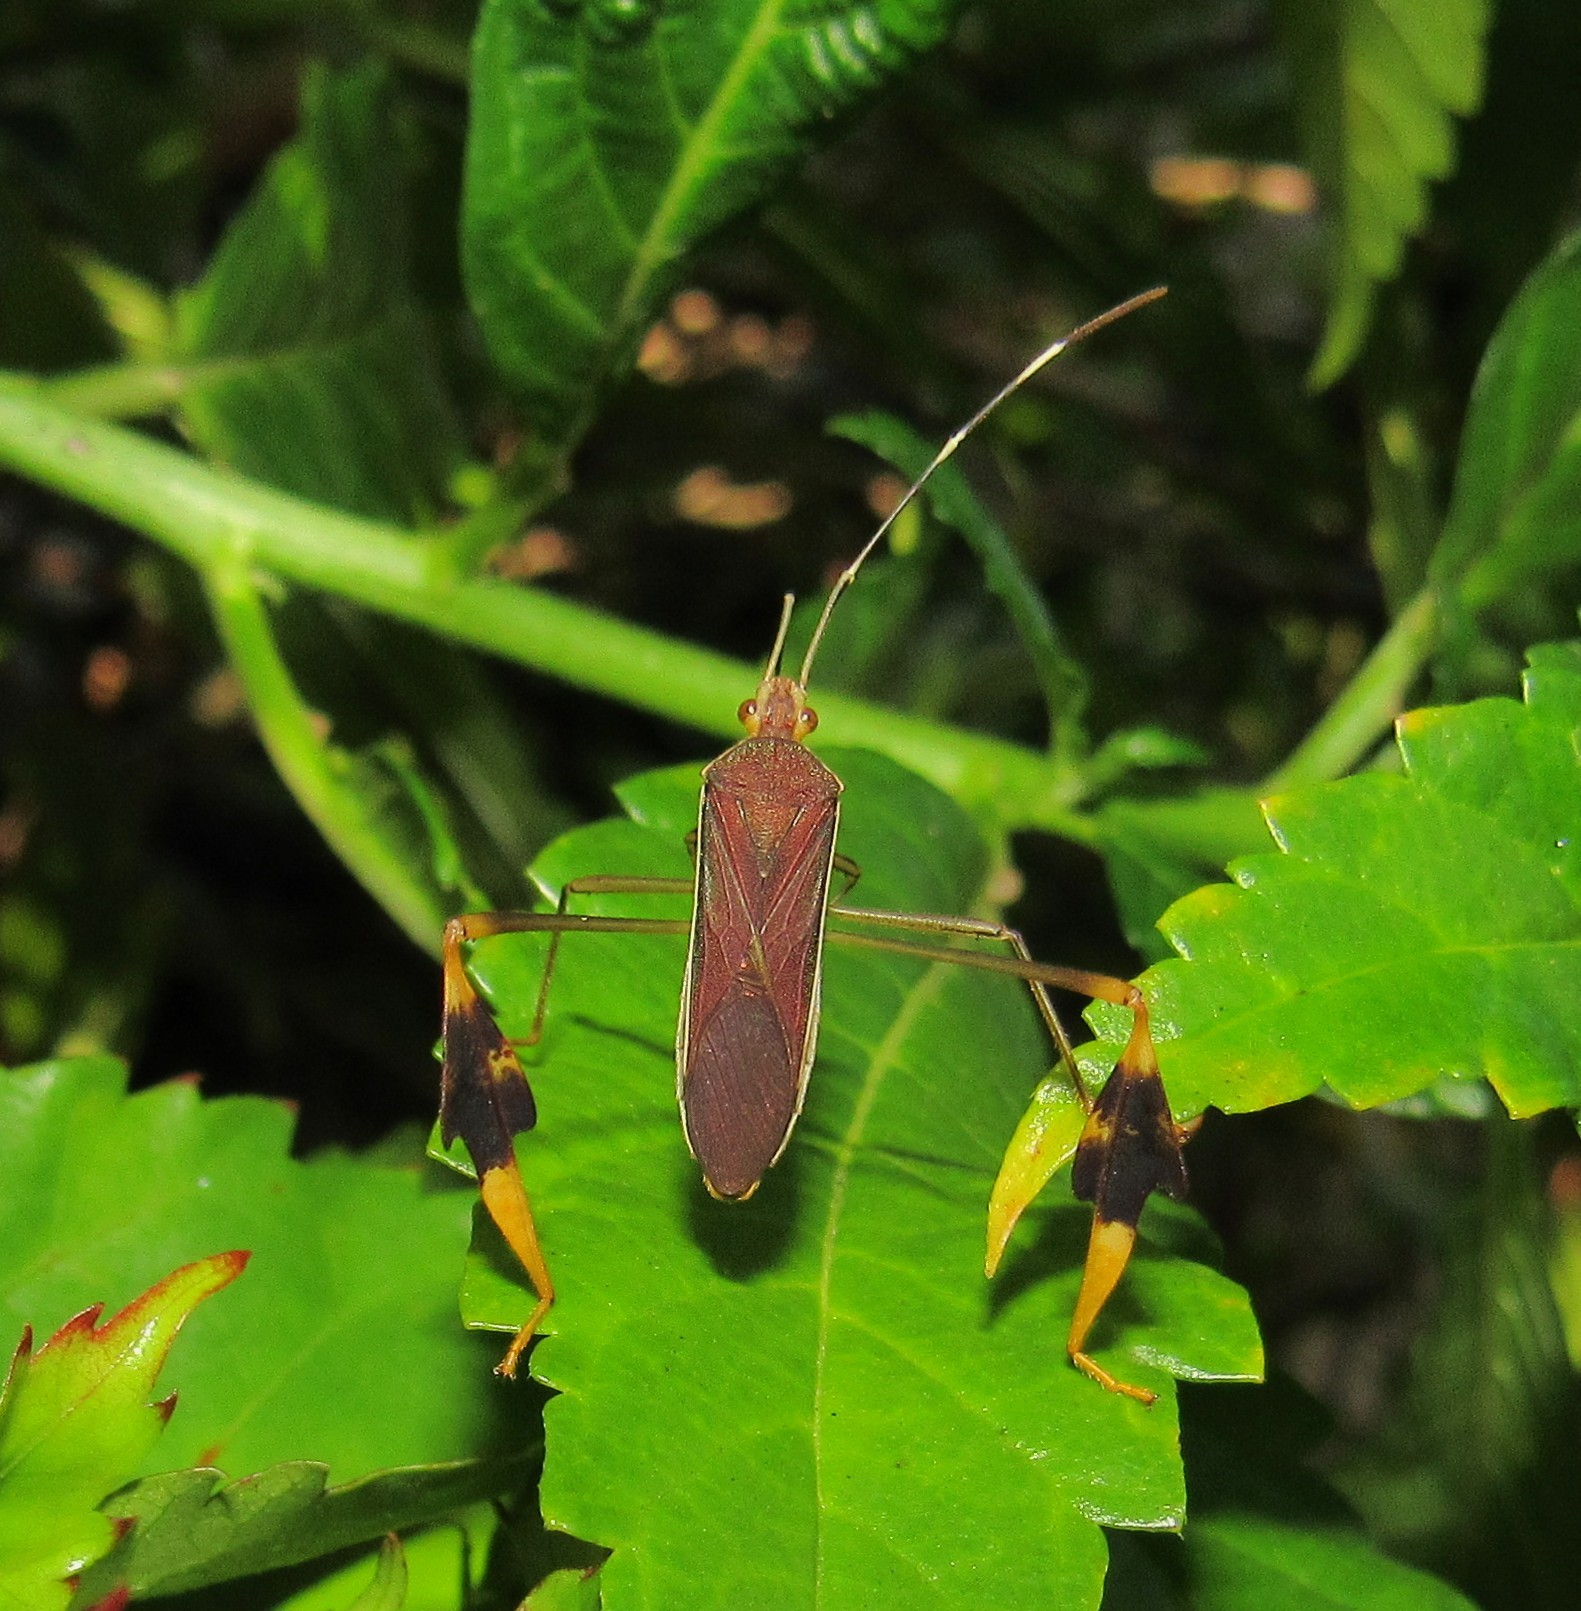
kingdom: Animalia
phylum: Arthropoda
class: Insecta
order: Hemiptera
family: Coreidae
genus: Anisoscelis
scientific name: Anisoscelis marginellus
